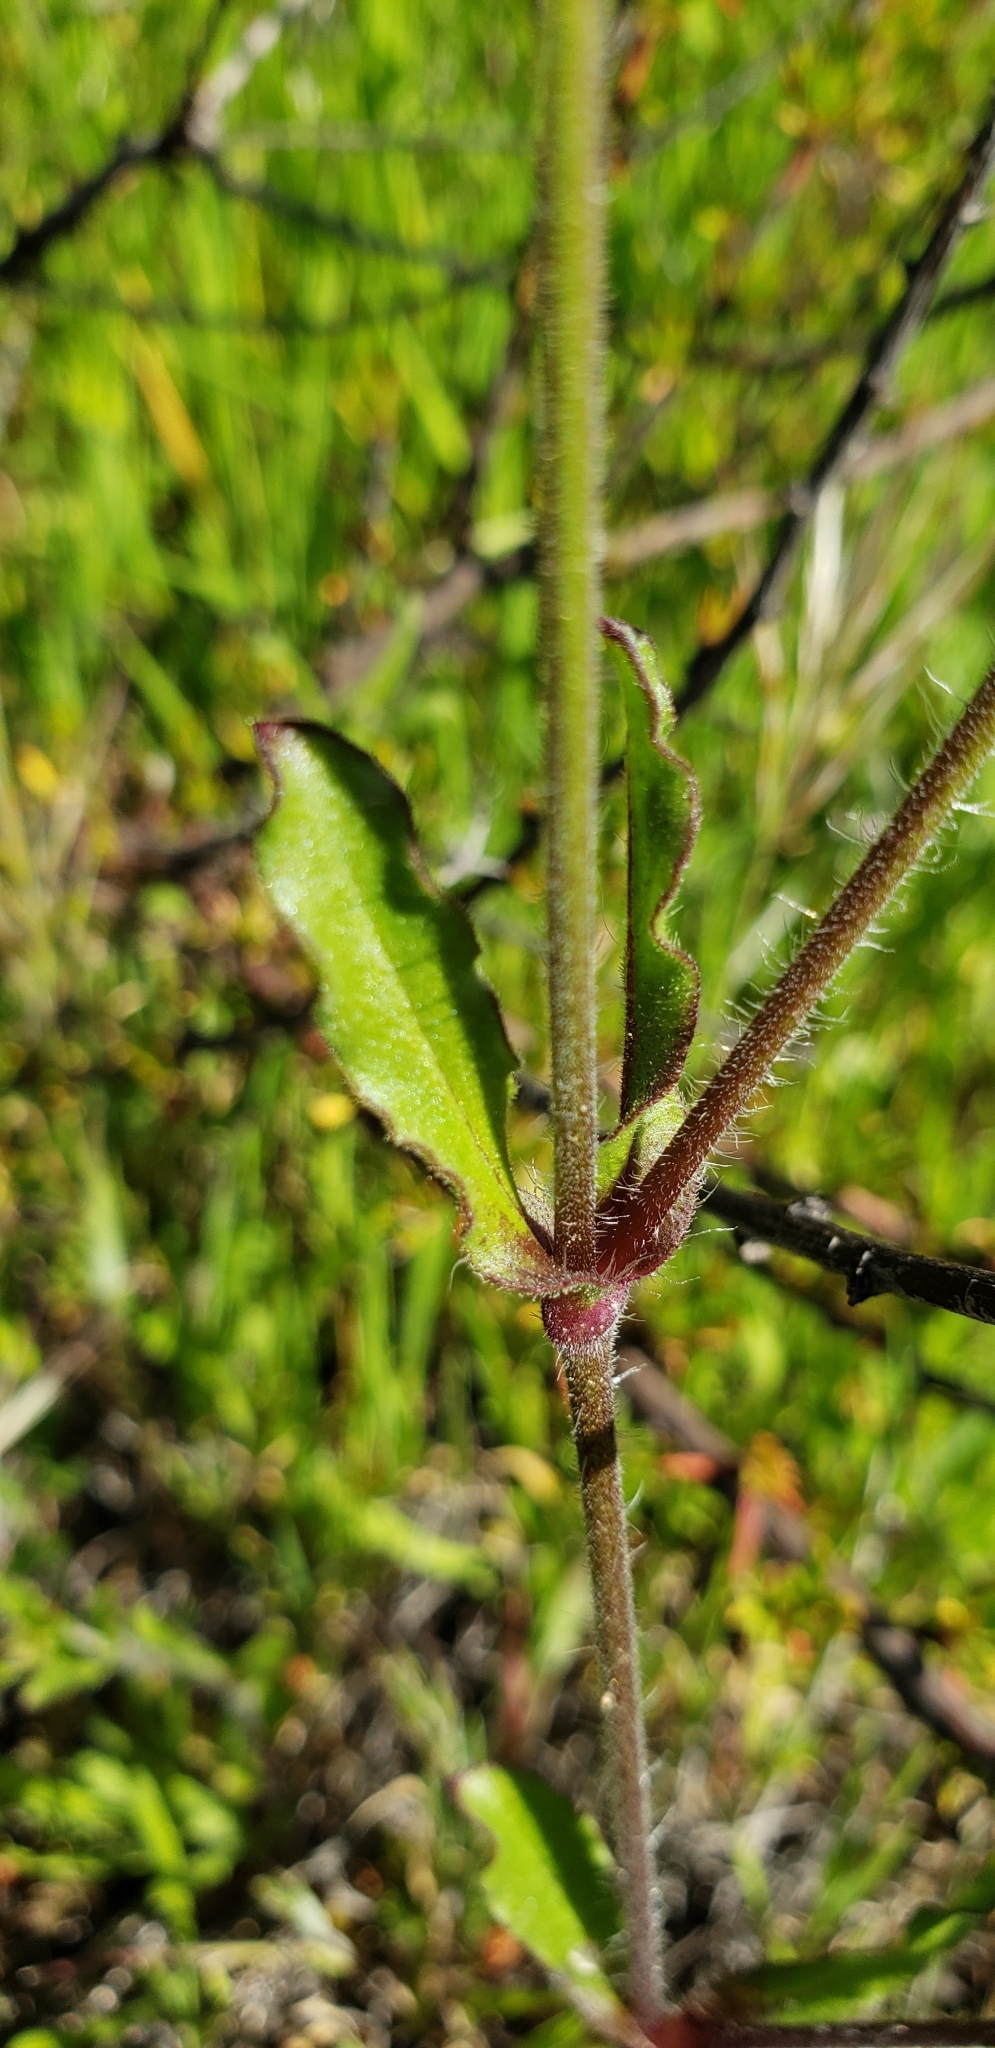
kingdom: Plantae
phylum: Tracheophyta
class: Magnoliopsida
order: Caryophyllales
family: Caryophyllaceae
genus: Silene
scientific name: Silene gallica
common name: Small-flowered catchfly
